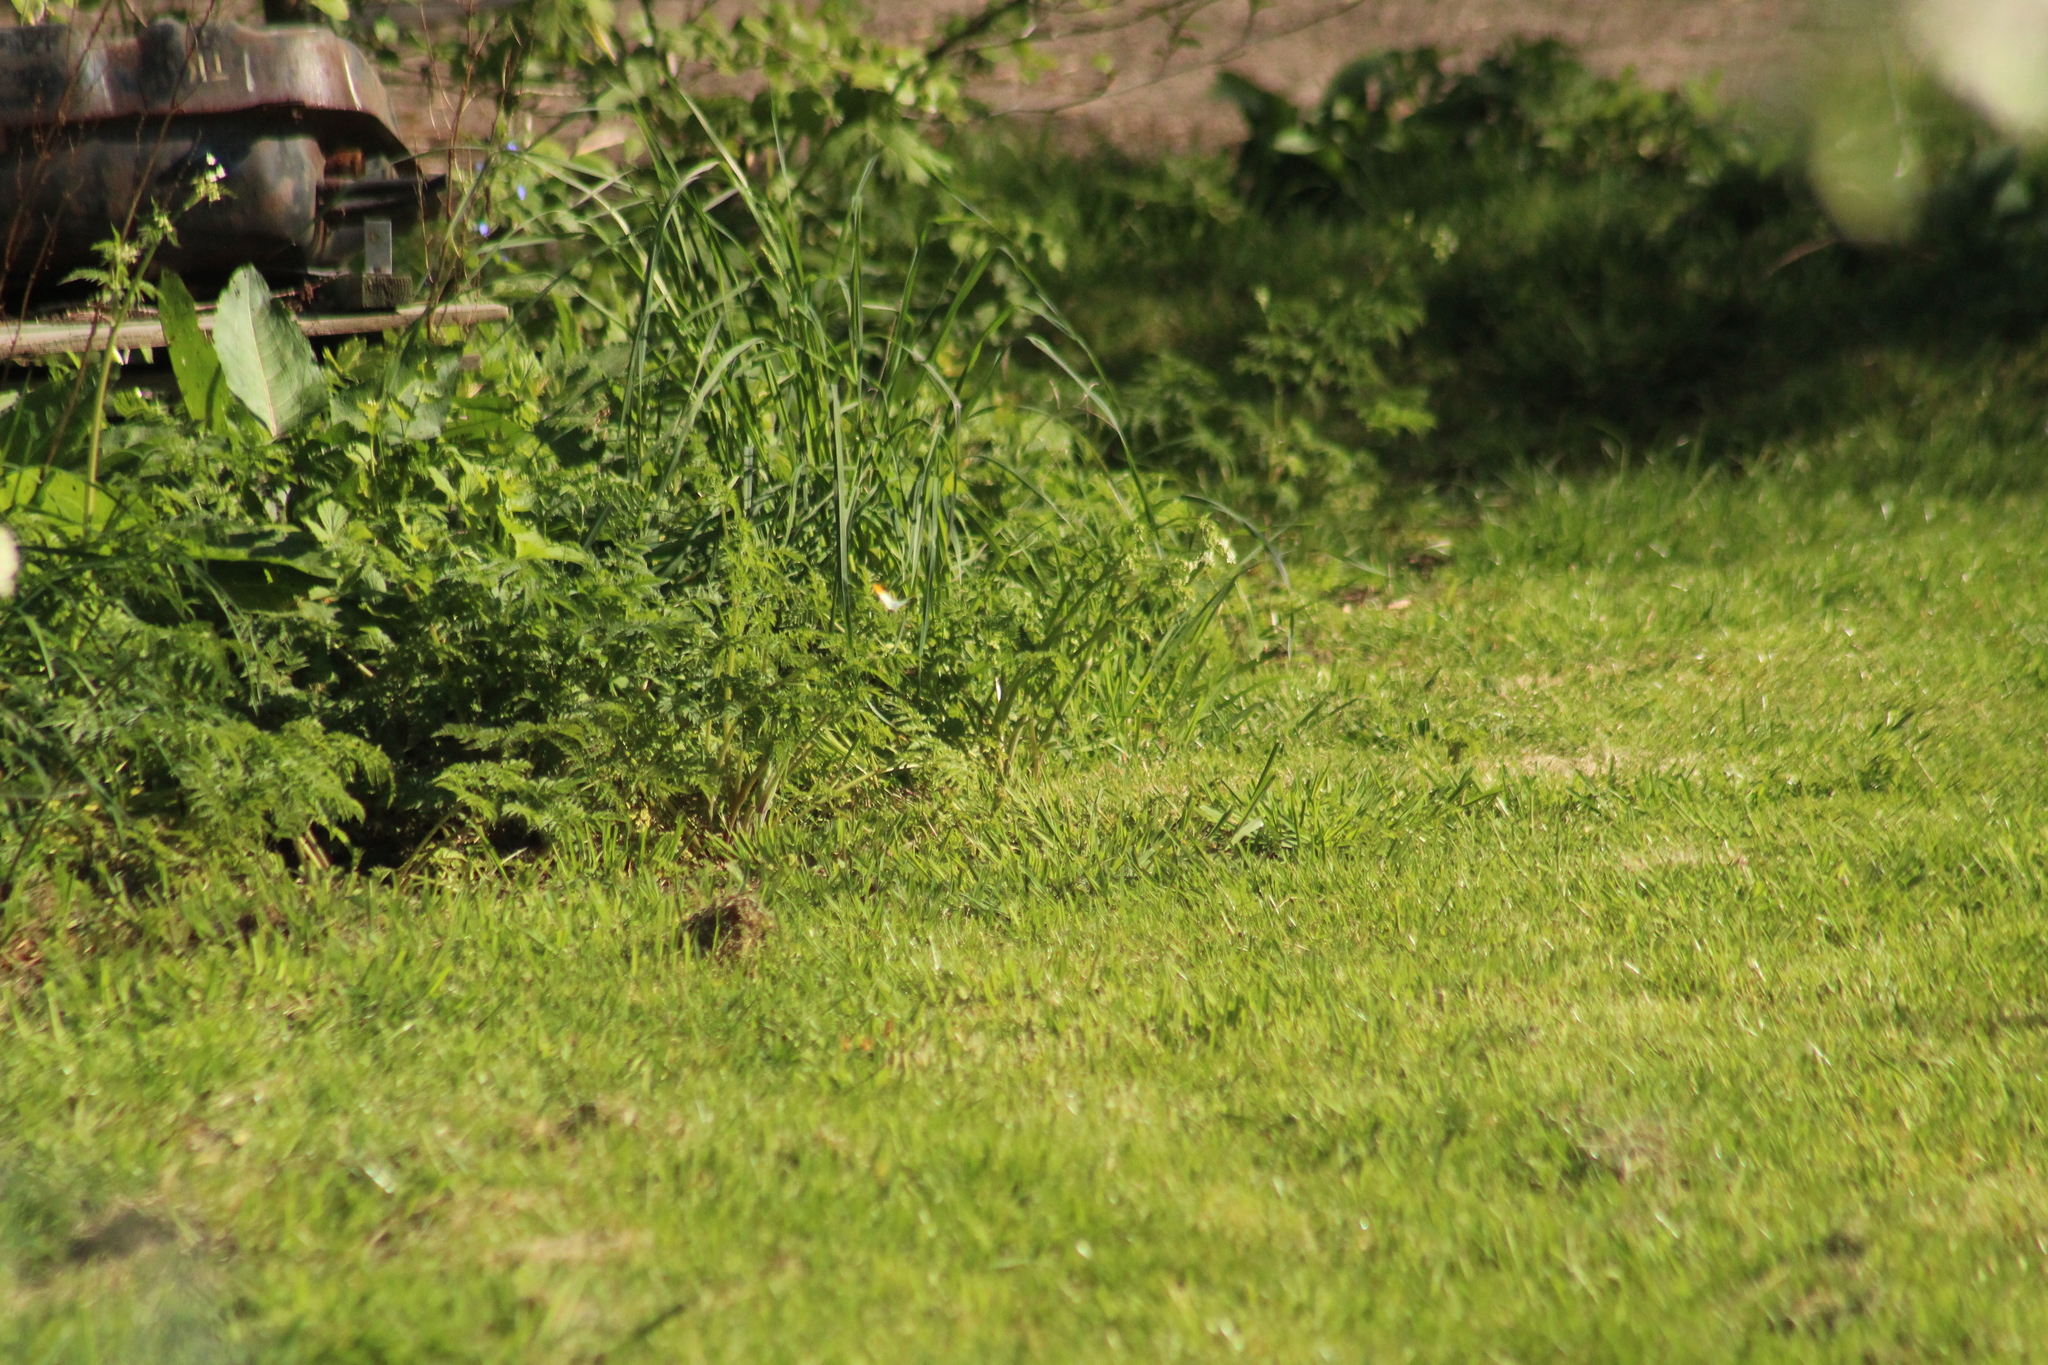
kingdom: Animalia
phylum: Arthropoda
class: Insecta
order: Lepidoptera
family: Pieridae
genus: Anthocharis
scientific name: Anthocharis cardamines
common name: Orange-tip
